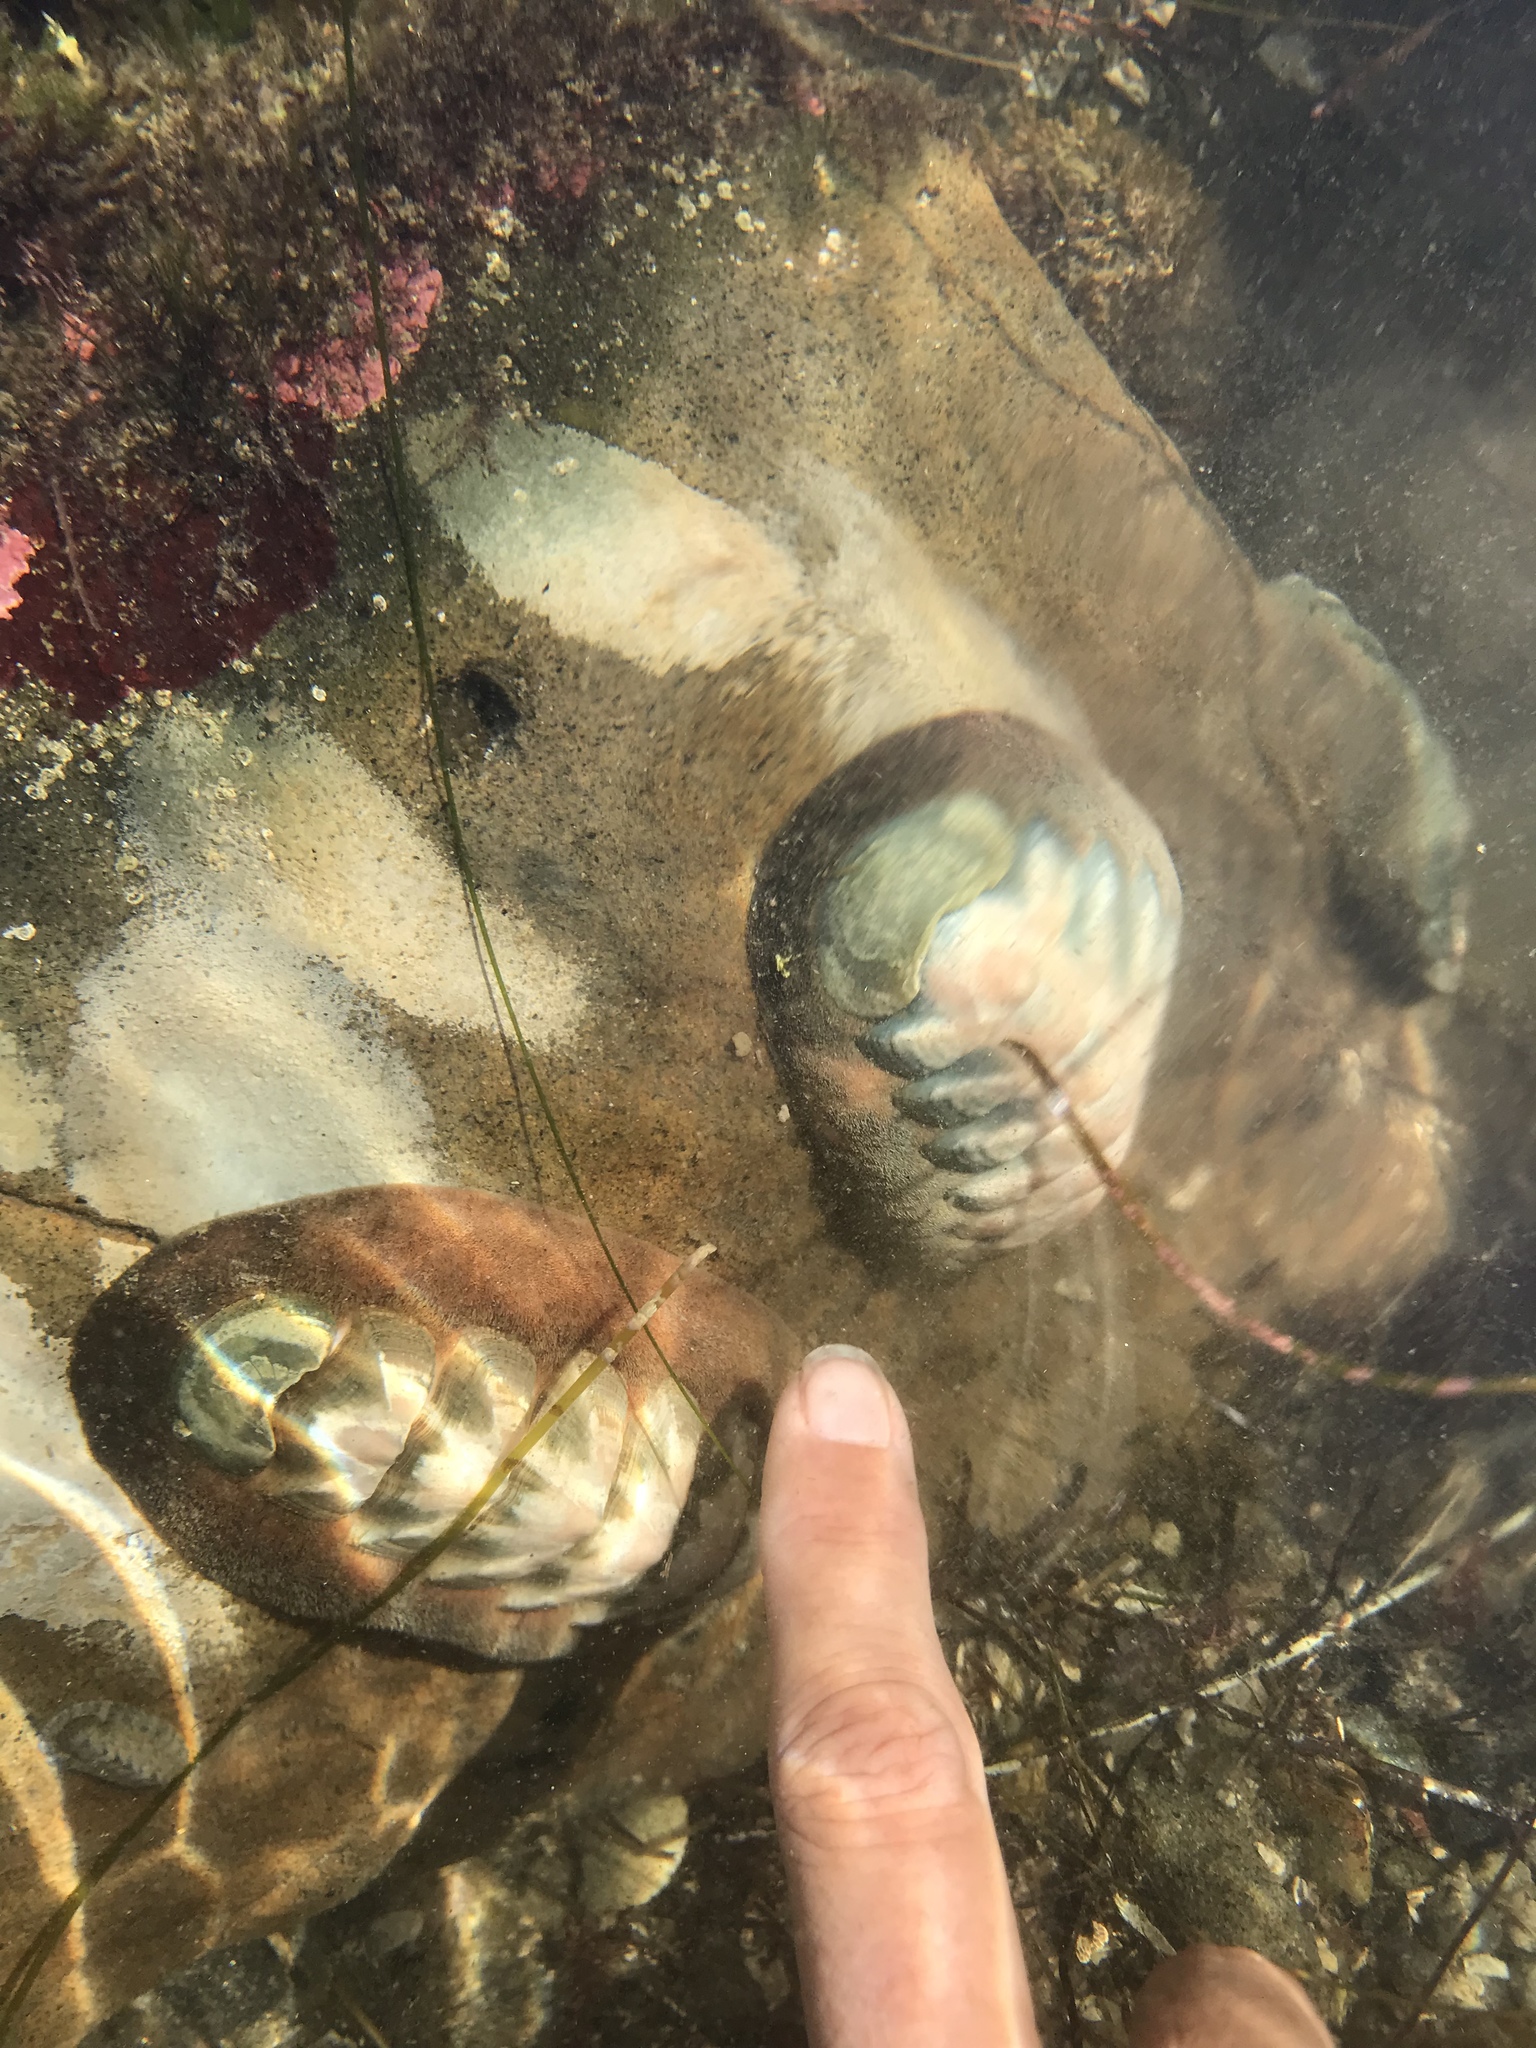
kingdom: Animalia
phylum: Mollusca
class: Polyplacophora
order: Chitonida
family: Ischnochitonidae
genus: Stenoplax
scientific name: Stenoplax conspicua
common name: Conspicuous chiton
